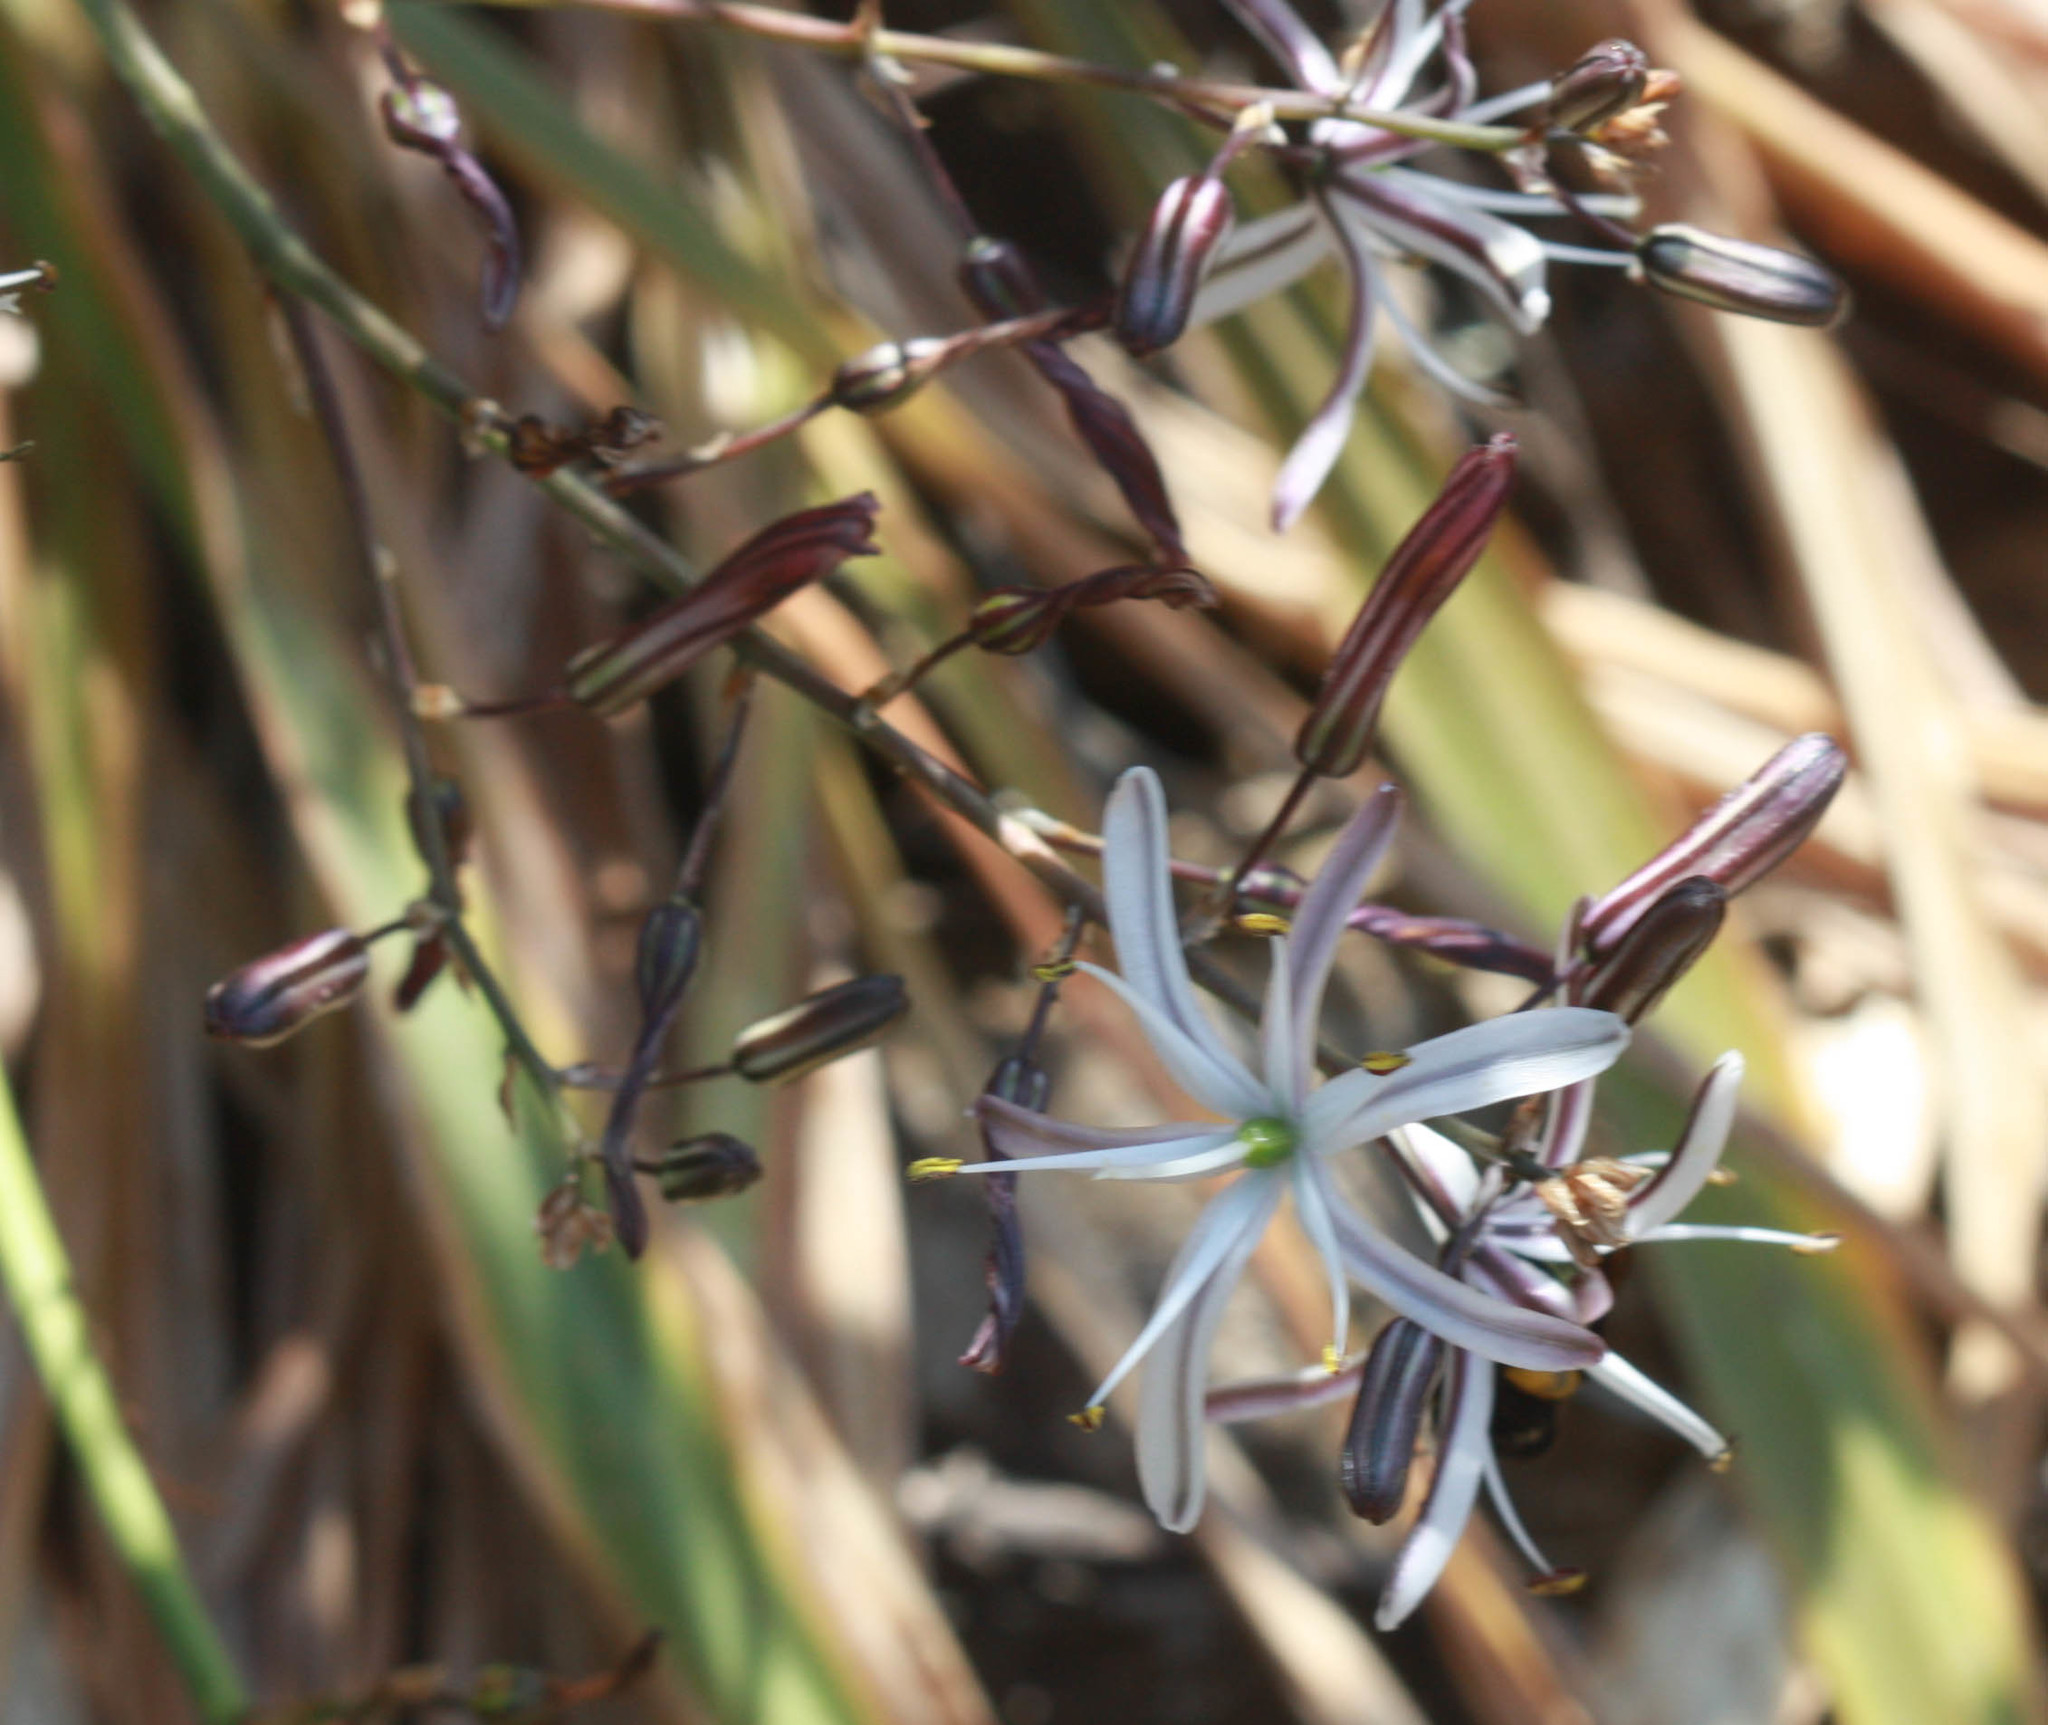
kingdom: Plantae
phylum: Tracheophyta
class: Liliopsida
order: Asparagales
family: Asparagaceae
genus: Chlorogalum
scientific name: Chlorogalum pomeridianum
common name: Amole
